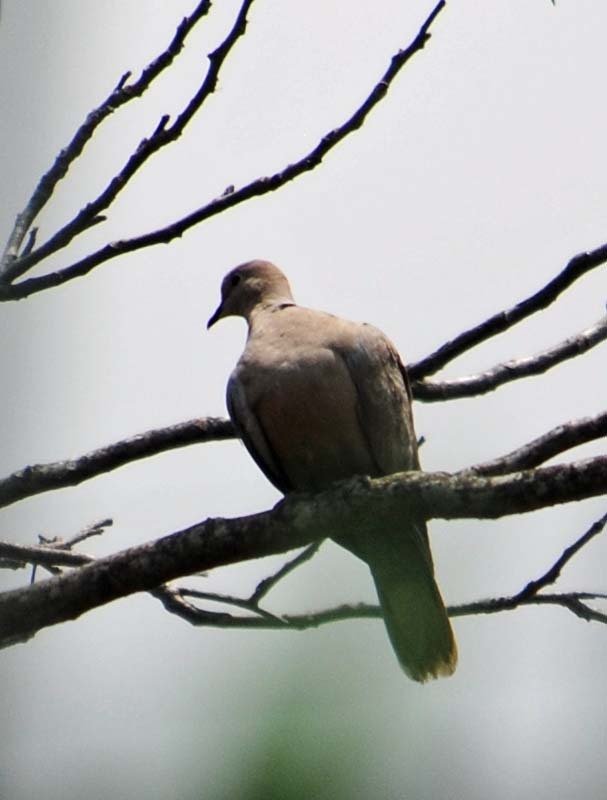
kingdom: Animalia
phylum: Chordata
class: Aves
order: Columbiformes
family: Columbidae
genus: Streptopelia
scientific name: Streptopelia decaocto
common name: Eurasian collared dove
